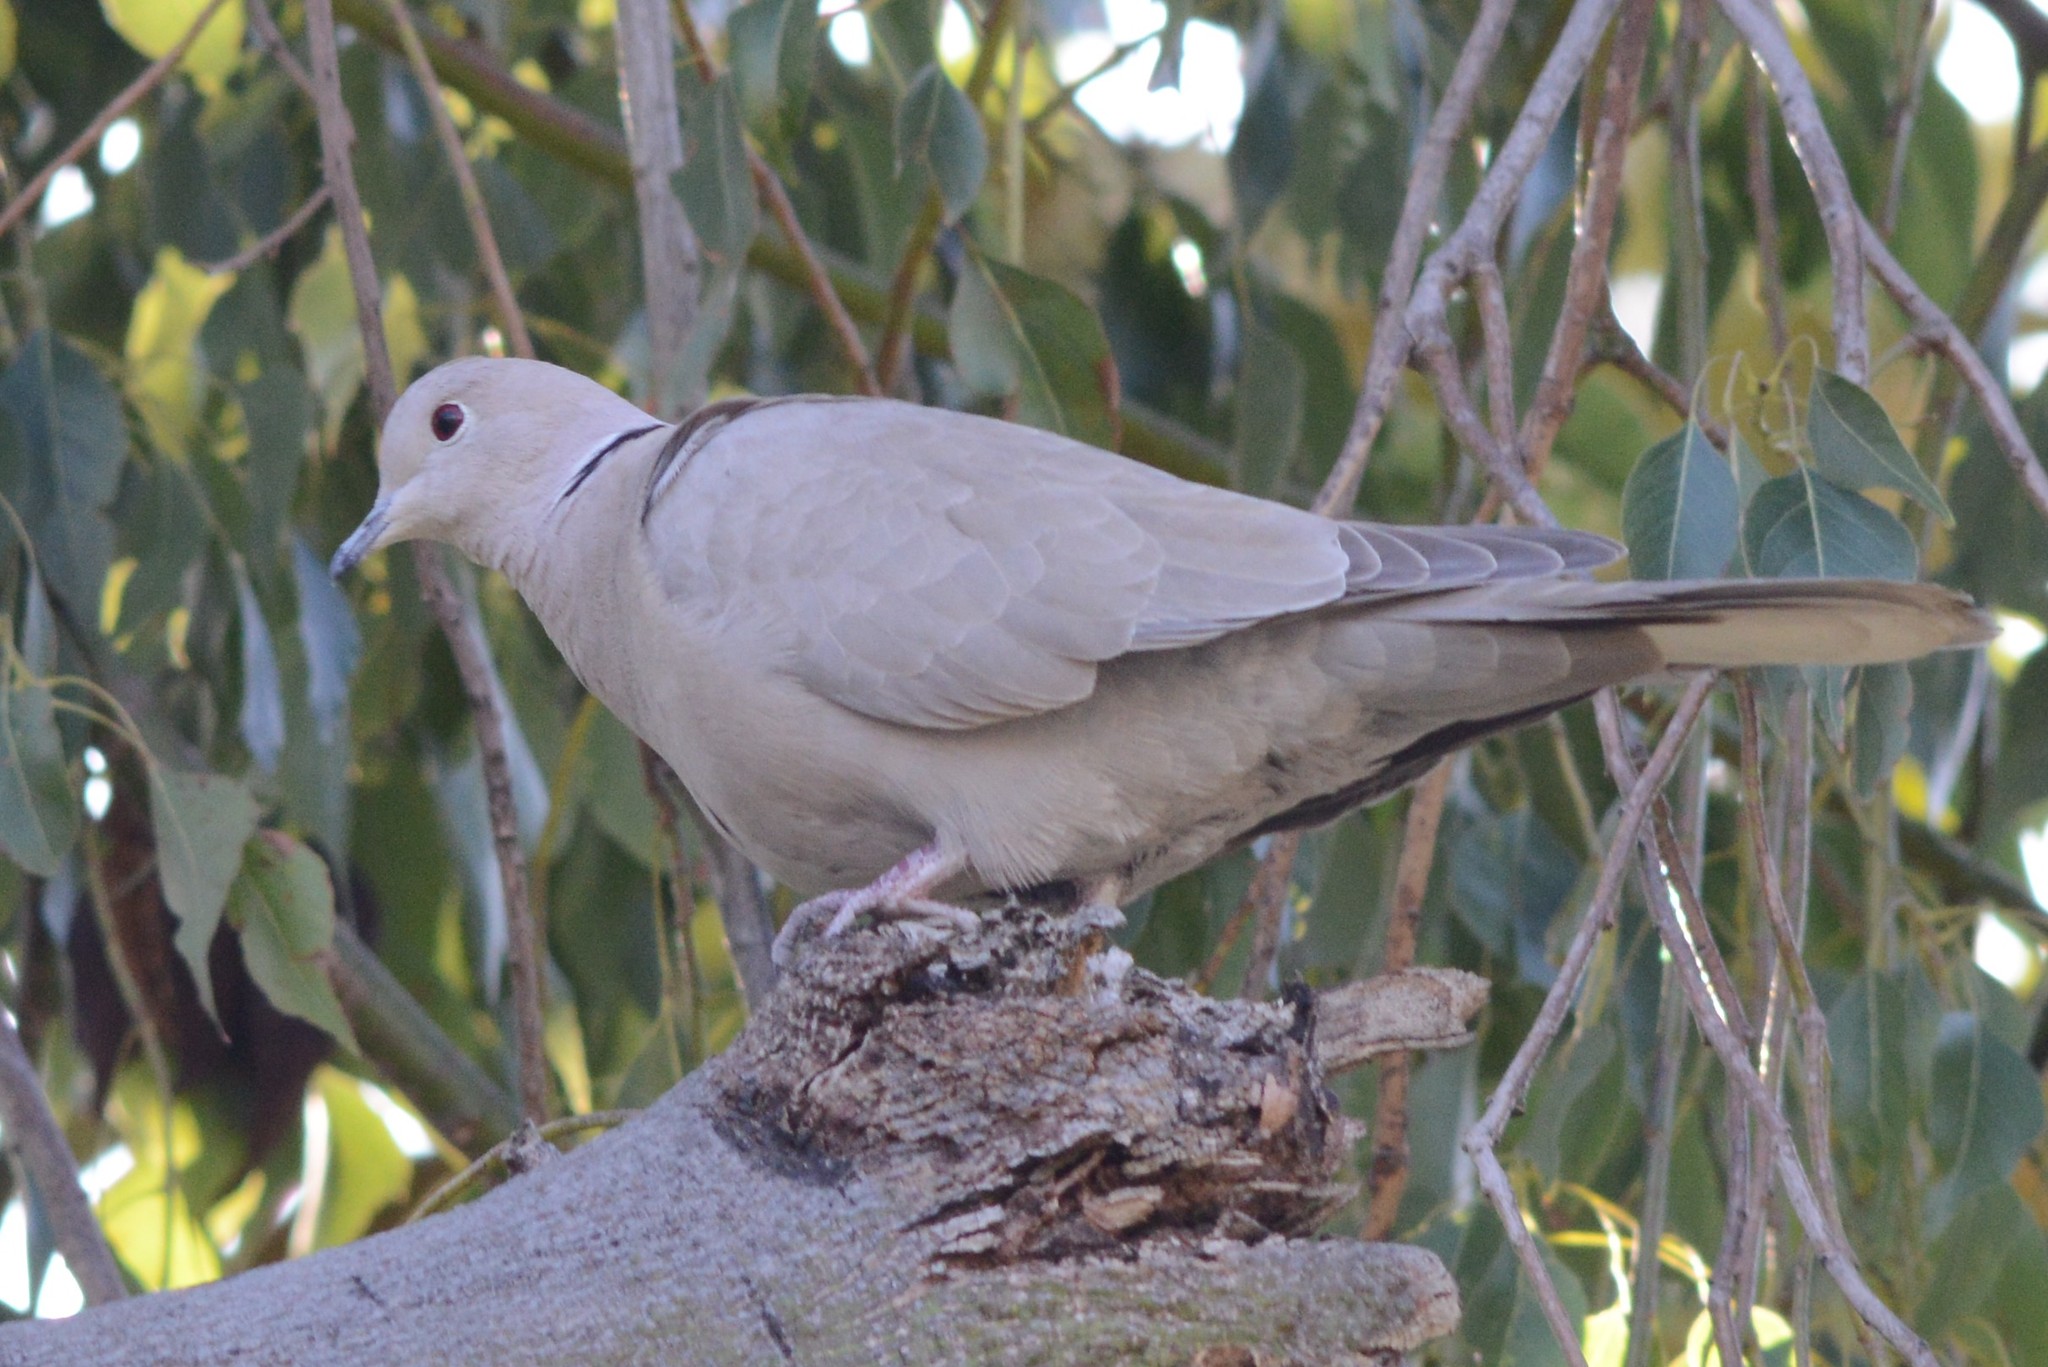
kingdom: Animalia
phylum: Chordata
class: Aves
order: Columbiformes
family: Columbidae
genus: Streptopelia
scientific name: Streptopelia decaocto
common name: Eurasian collared dove
